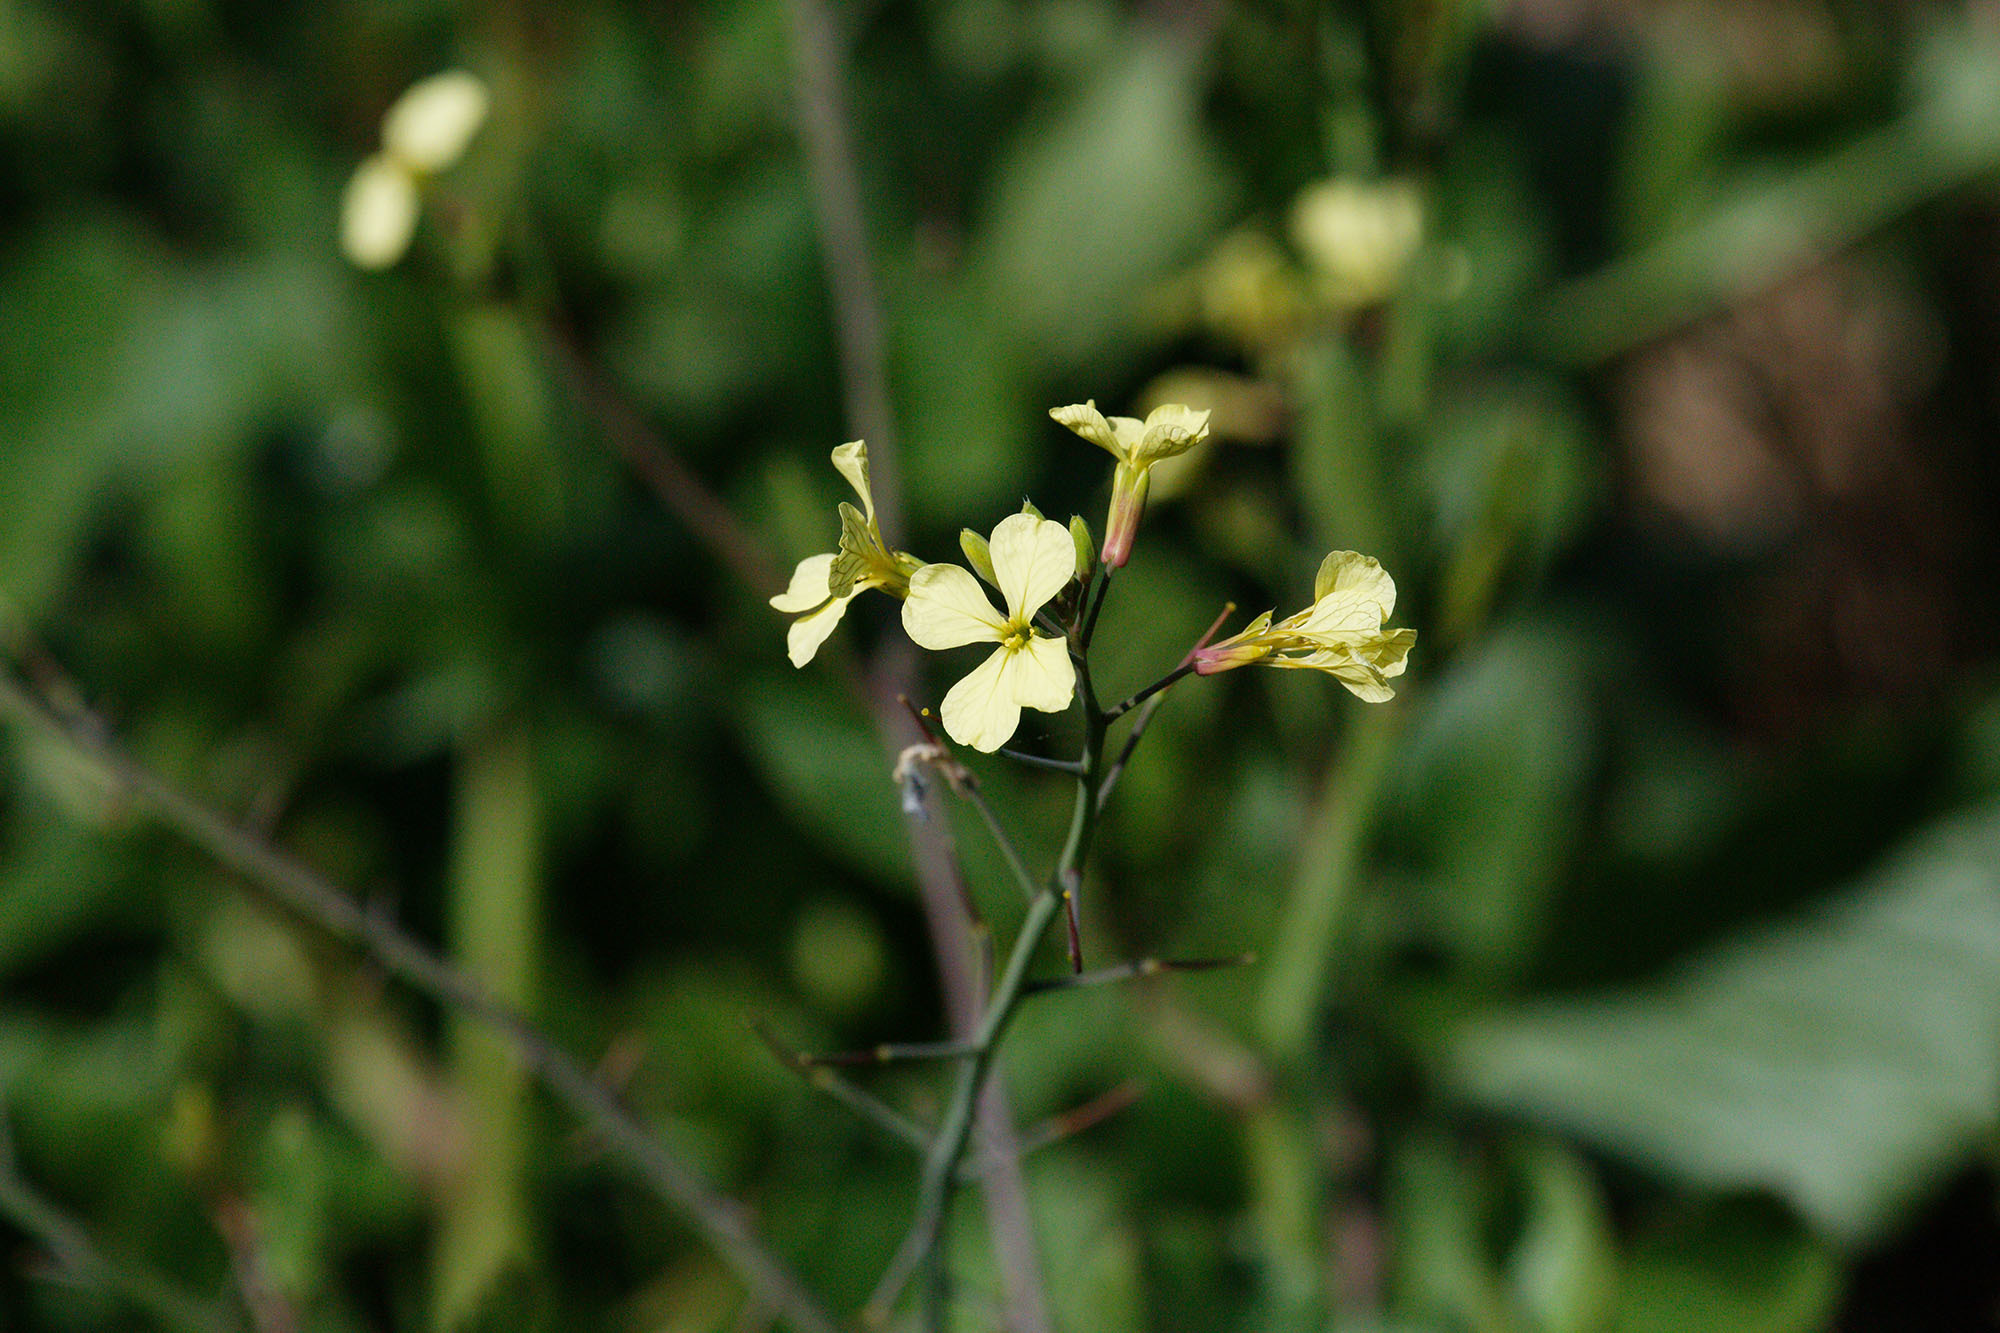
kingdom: Plantae
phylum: Tracheophyta
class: Magnoliopsida
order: Brassicales
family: Brassicaceae
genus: Raphanus
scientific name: Raphanus raphanistrum
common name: Wild radish
